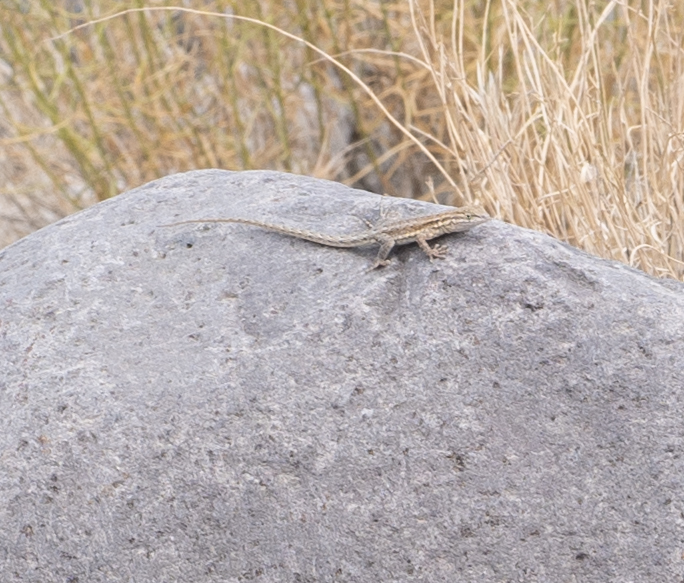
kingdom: Animalia
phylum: Chordata
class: Squamata
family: Phrynosomatidae
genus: Uta
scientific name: Uta stansburiana
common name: Side-blotched lizard
